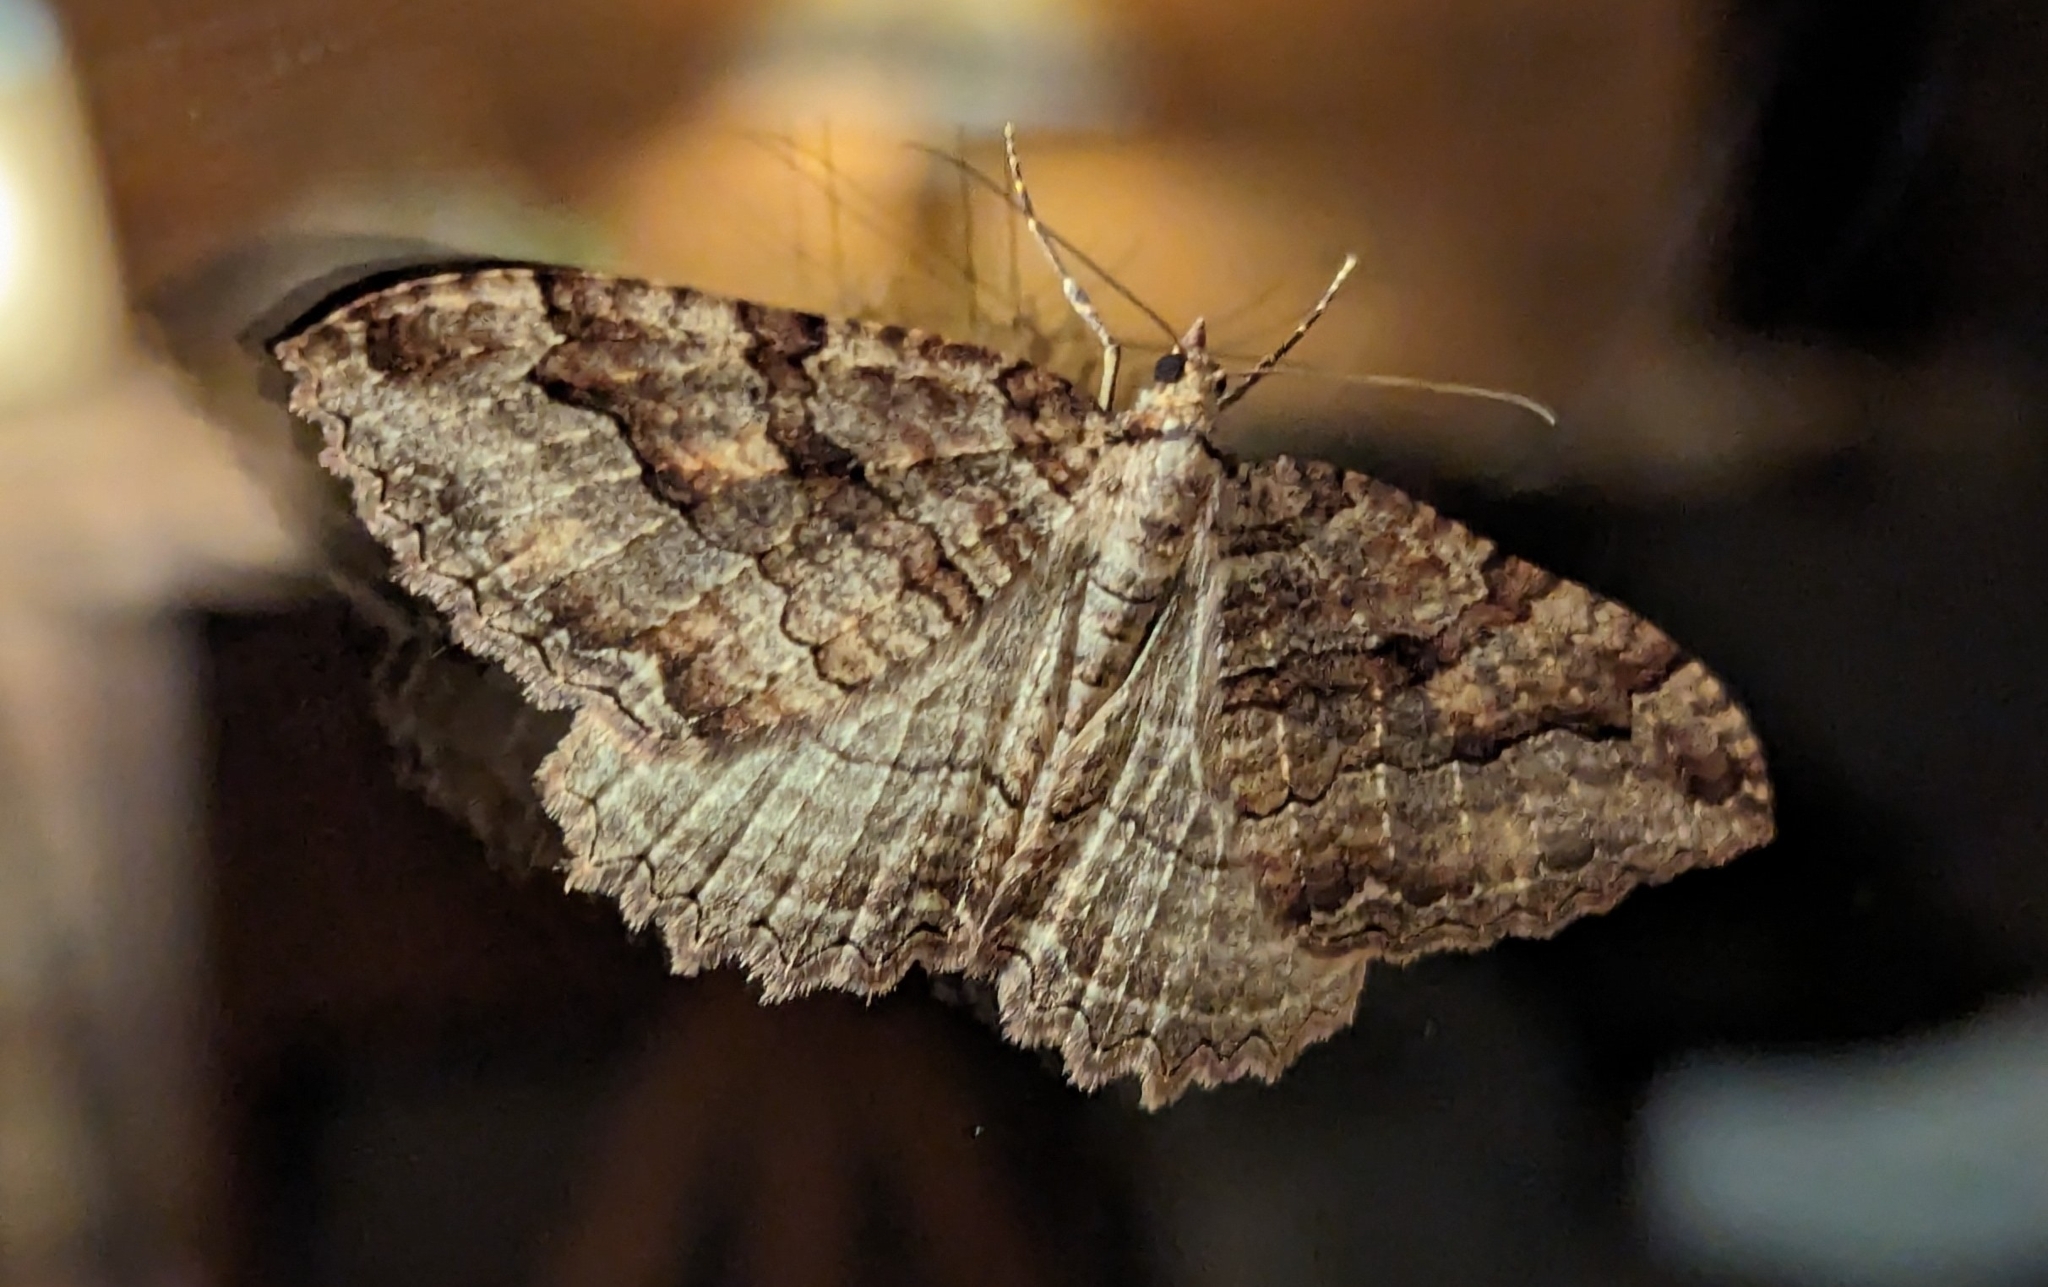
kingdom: Animalia
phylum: Arthropoda
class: Insecta
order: Lepidoptera
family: Geometridae
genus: Triphosa
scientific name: Triphosa haesitata
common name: Tissue moth
